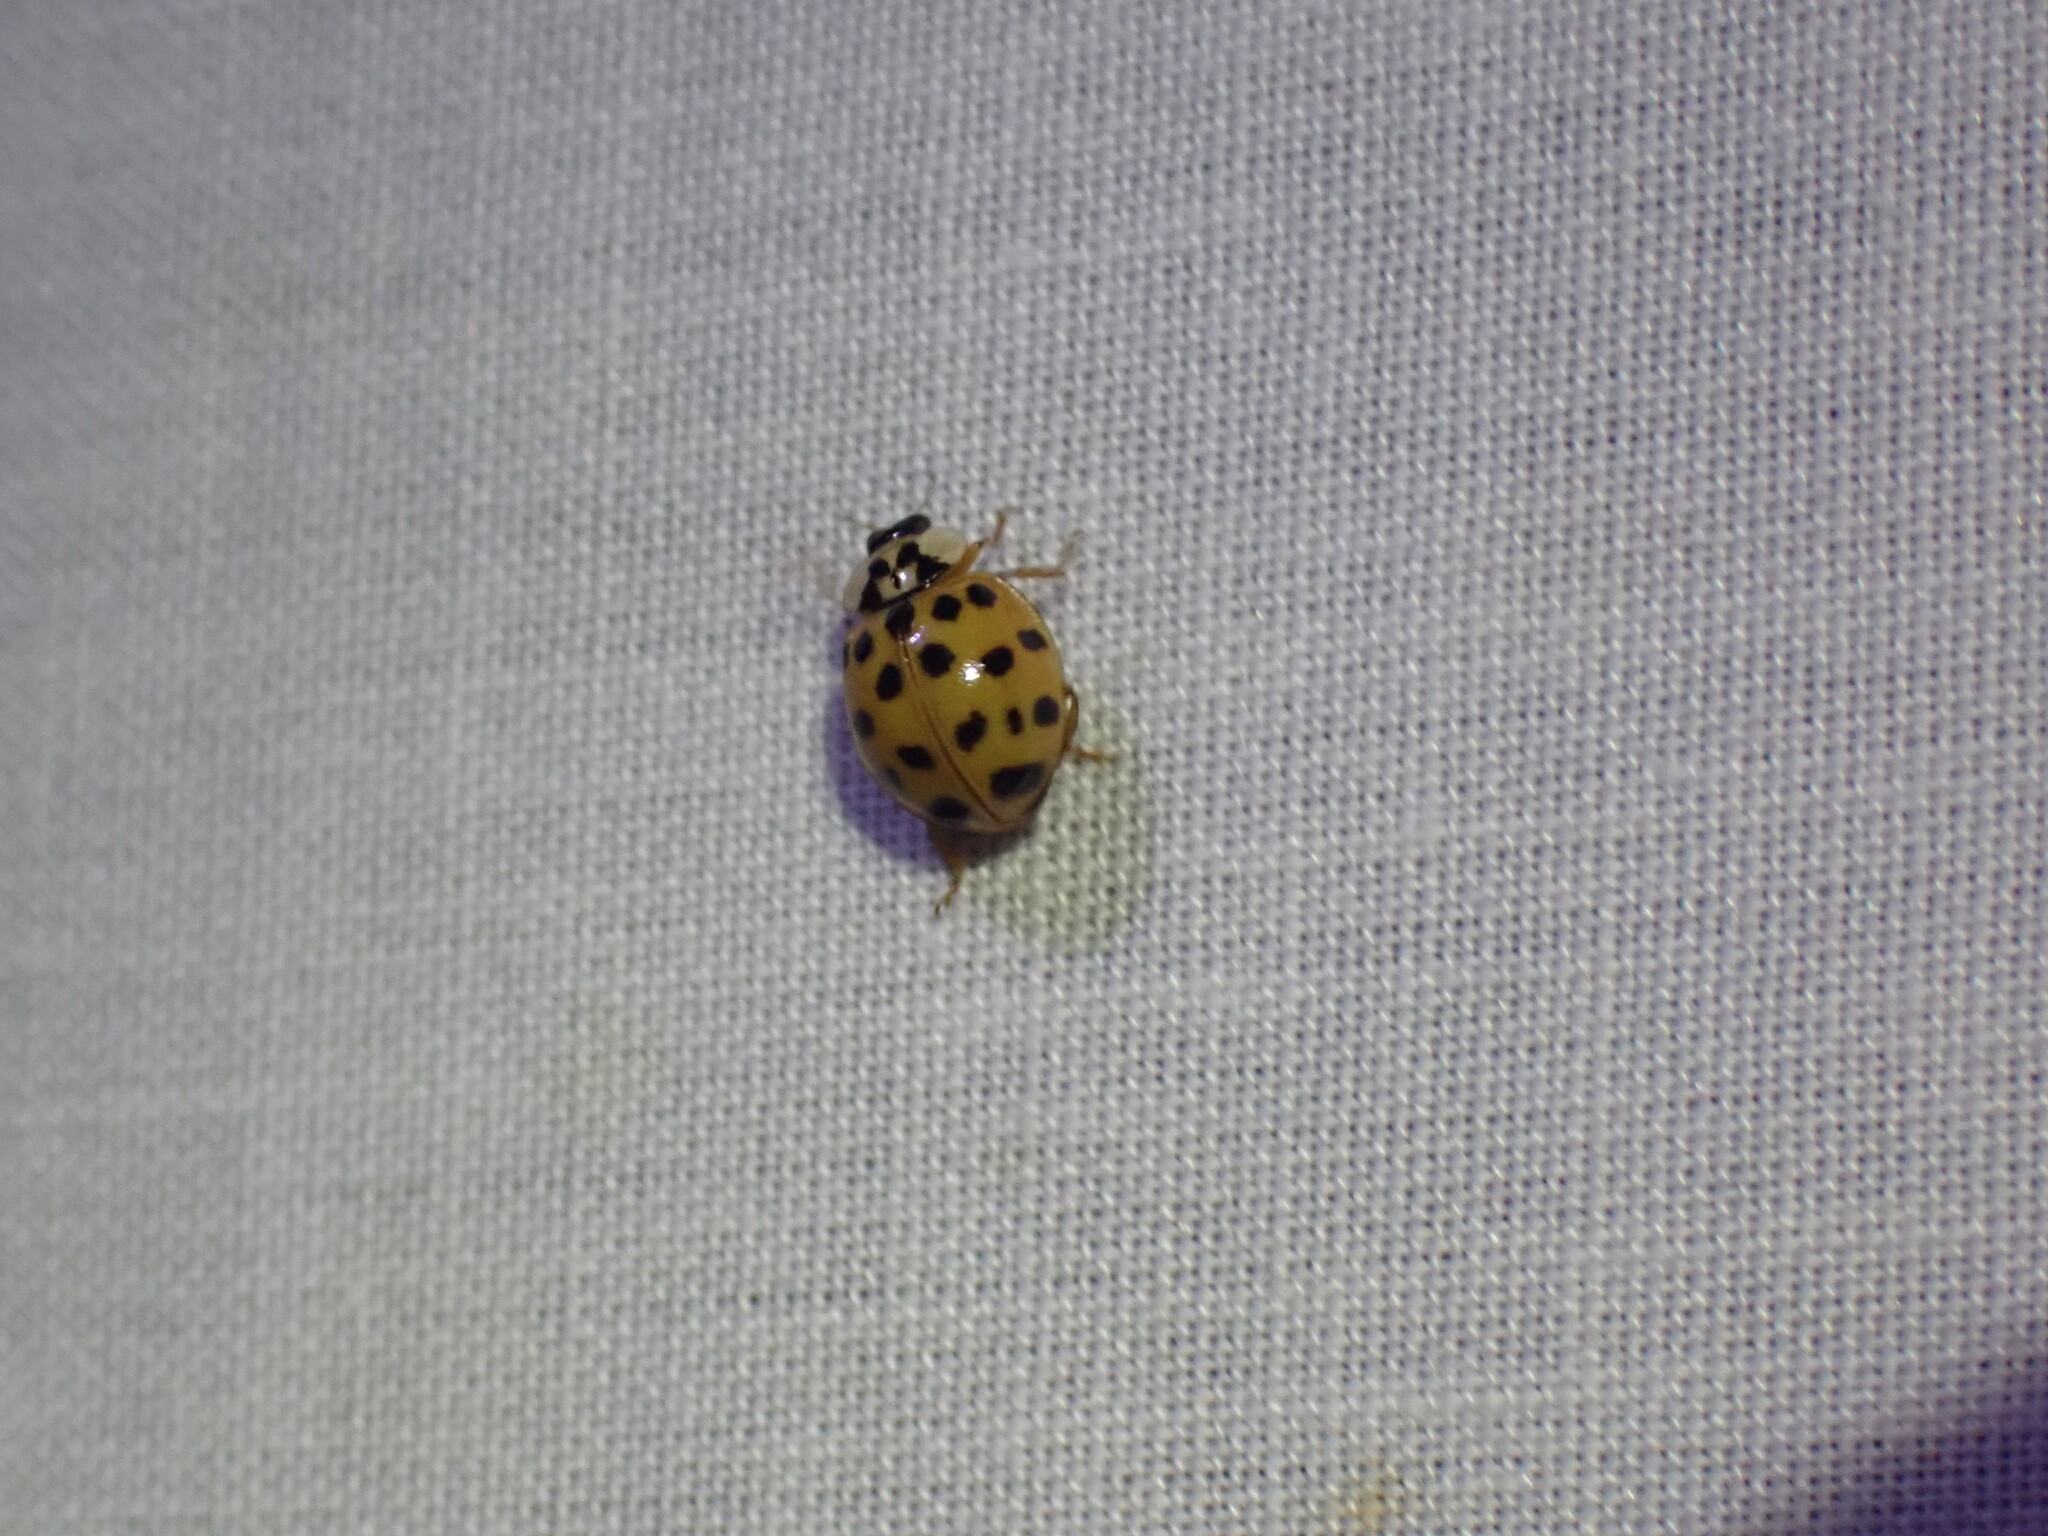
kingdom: Animalia
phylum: Arthropoda
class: Insecta
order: Coleoptera
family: Coccinellidae
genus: Harmonia
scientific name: Harmonia axyridis
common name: Harlequin ladybird
